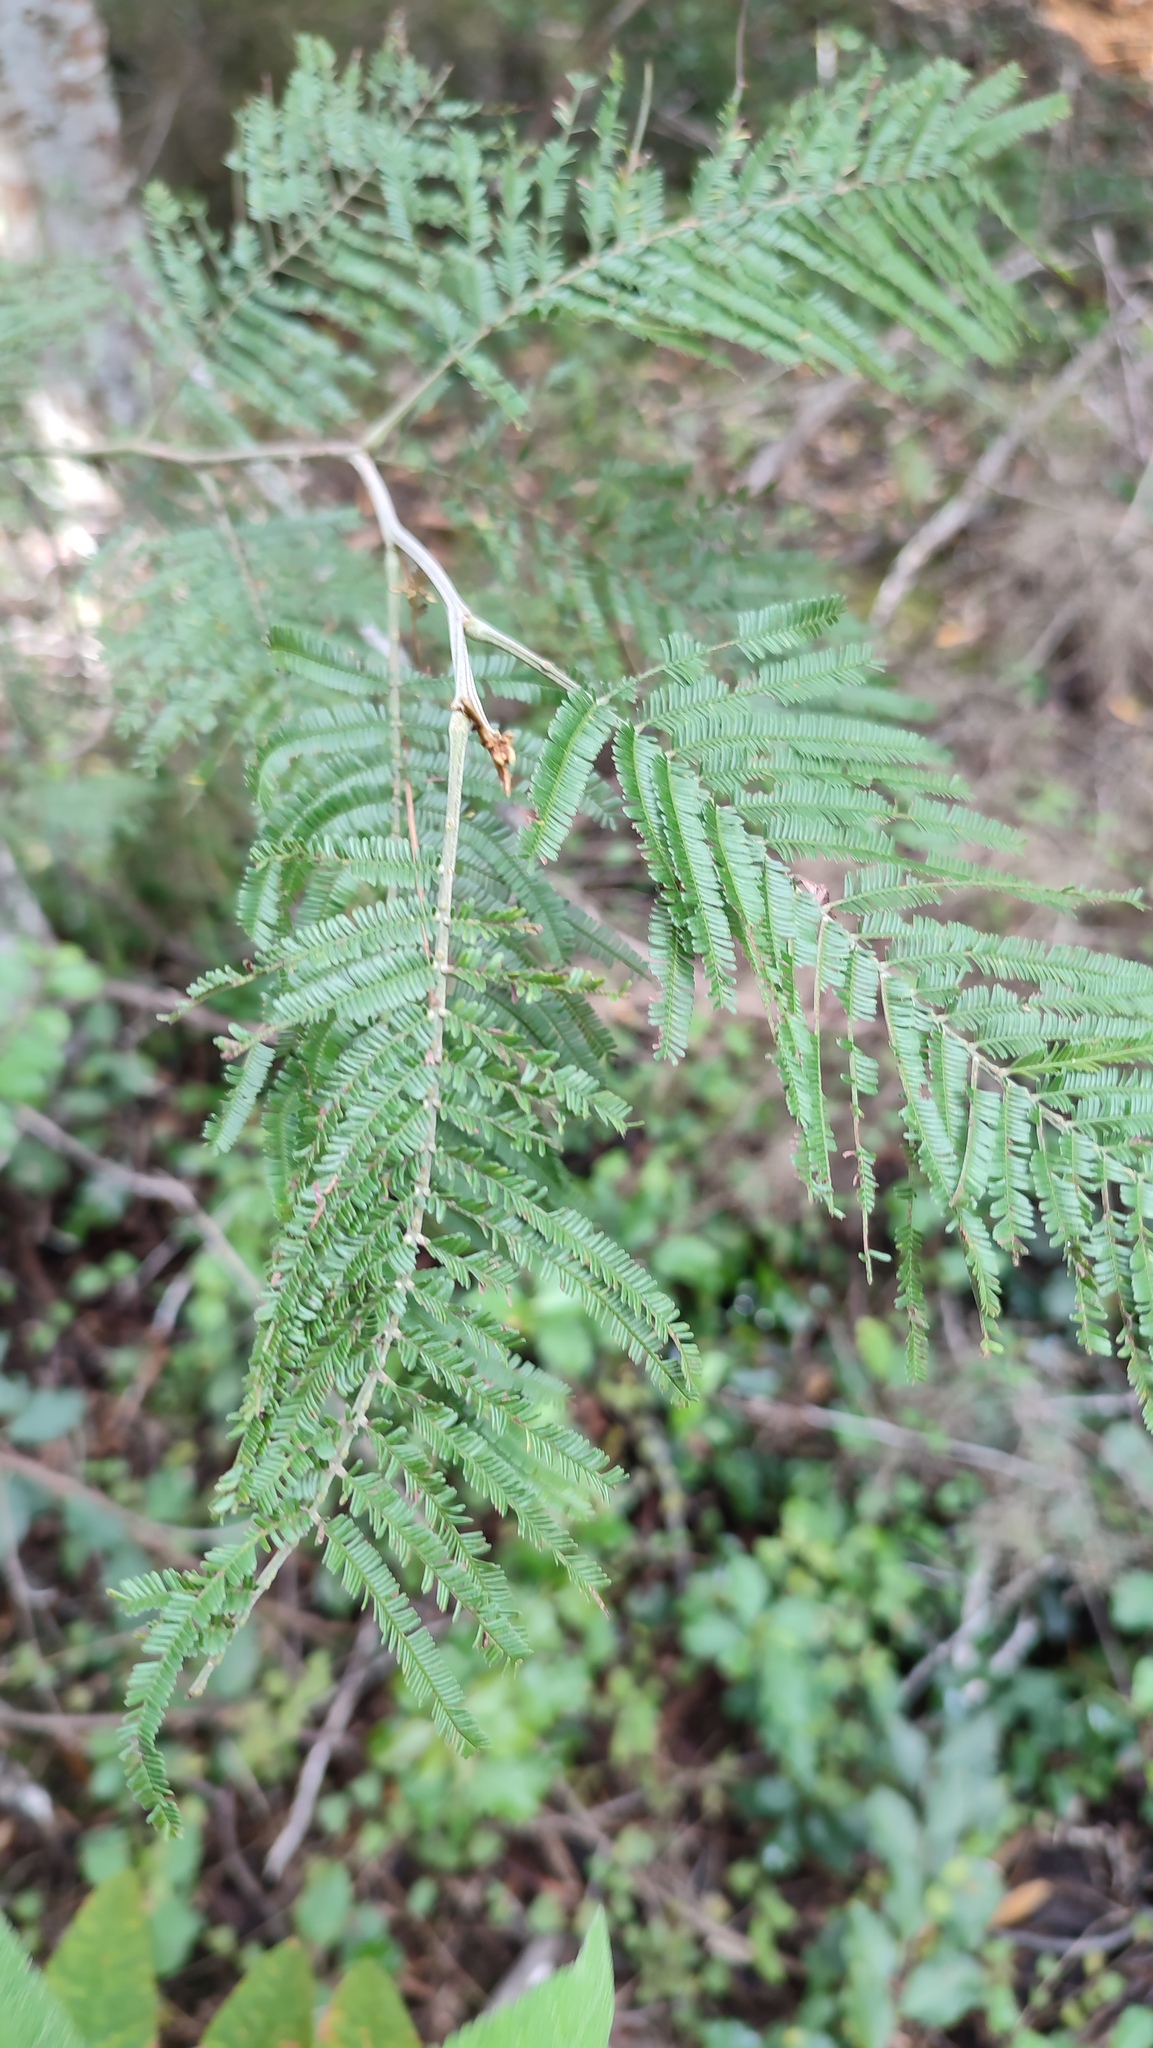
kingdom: Plantae
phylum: Tracheophyta
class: Magnoliopsida
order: Fabales
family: Fabaceae
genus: Acacia
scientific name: Acacia mearnsii
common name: Black wattle
